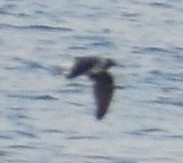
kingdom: Animalia
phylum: Chordata
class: Aves
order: Charadriiformes
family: Laridae
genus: Ichthyaetus
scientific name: Ichthyaetus leucophthalmus
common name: White-eyed gull
